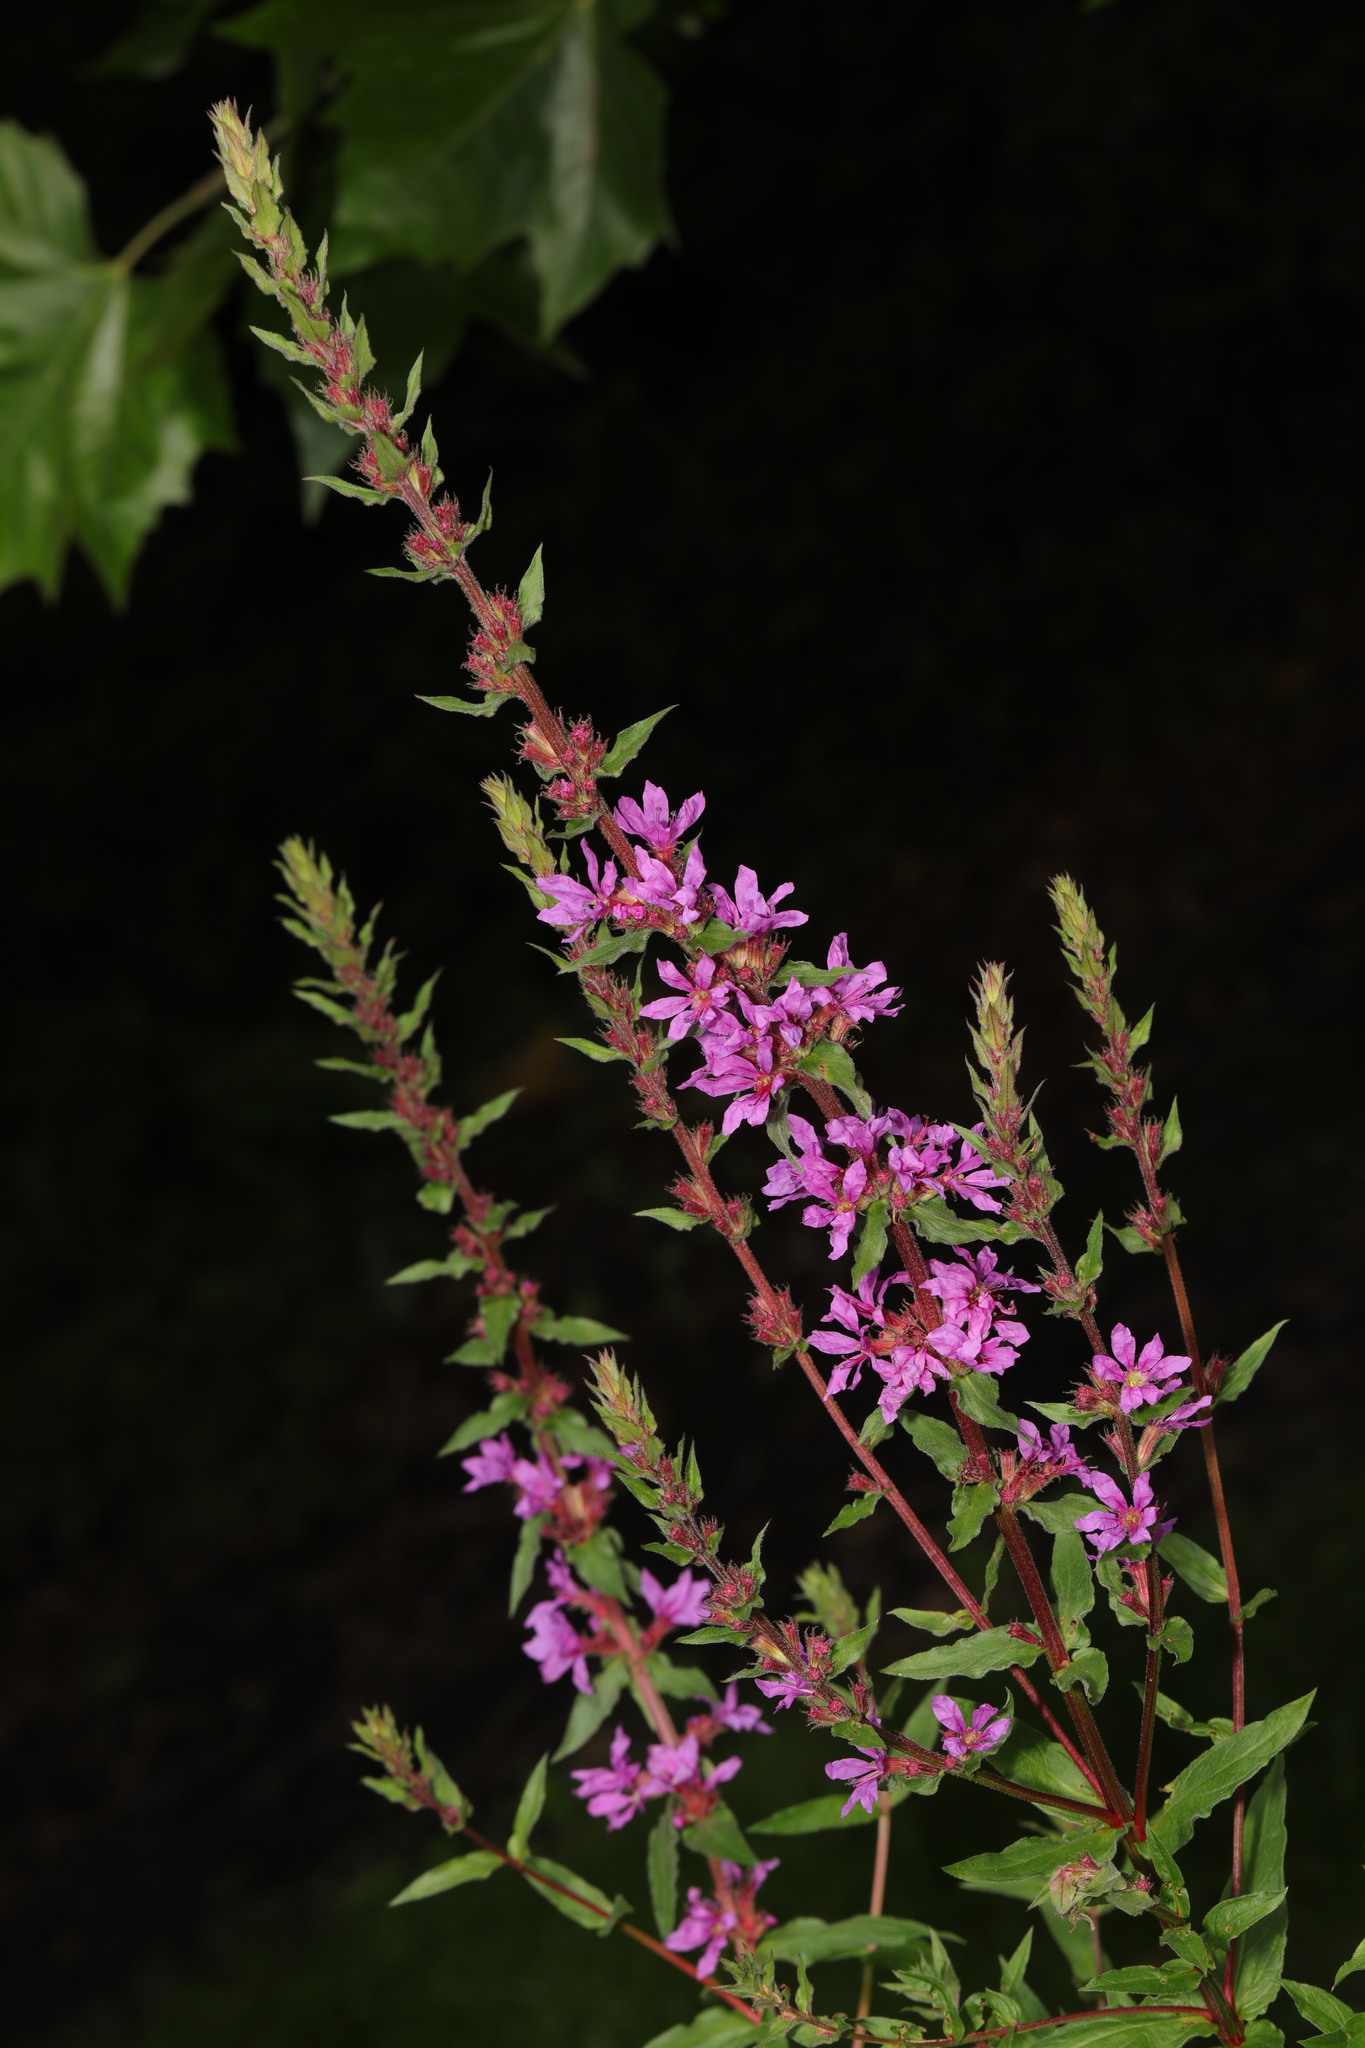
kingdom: Plantae
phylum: Tracheophyta
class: Magnoliopsida
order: Myrtales
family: Lythraceae
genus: Lythrum
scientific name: Lythrum salicaria
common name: Purple loosestrife
